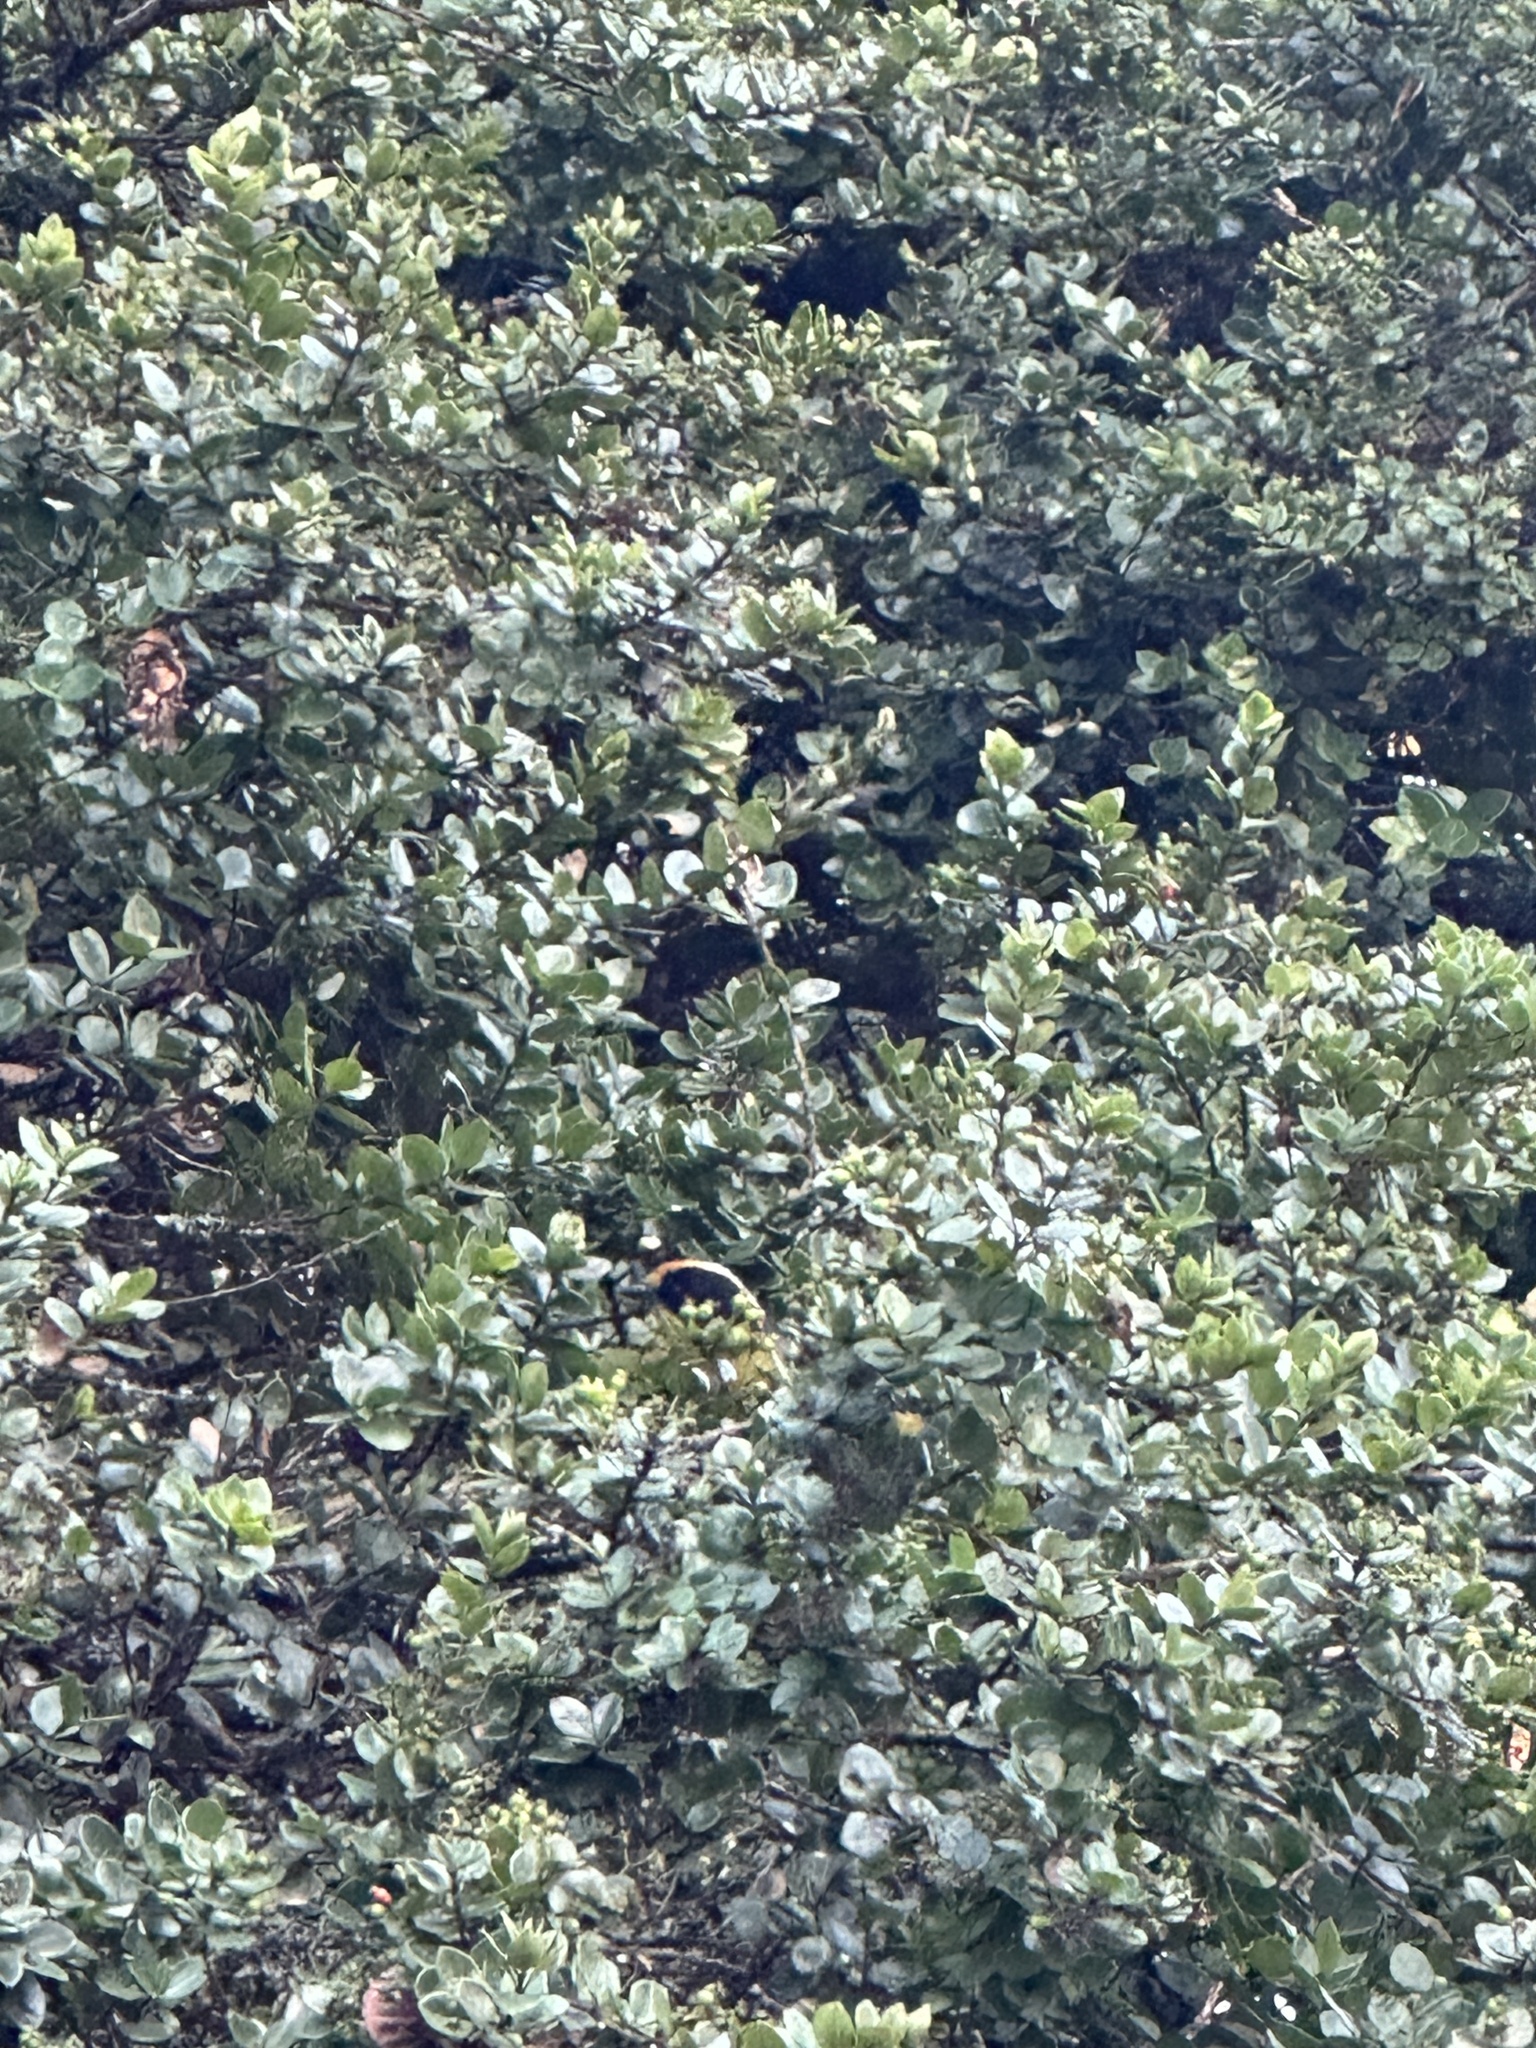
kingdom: Animalia
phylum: Chordata
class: Aves
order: Passeriformes
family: Passerellidae
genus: Atlapetes
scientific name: Atlapetes pallidinucha
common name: Pale-naped brushfinch
